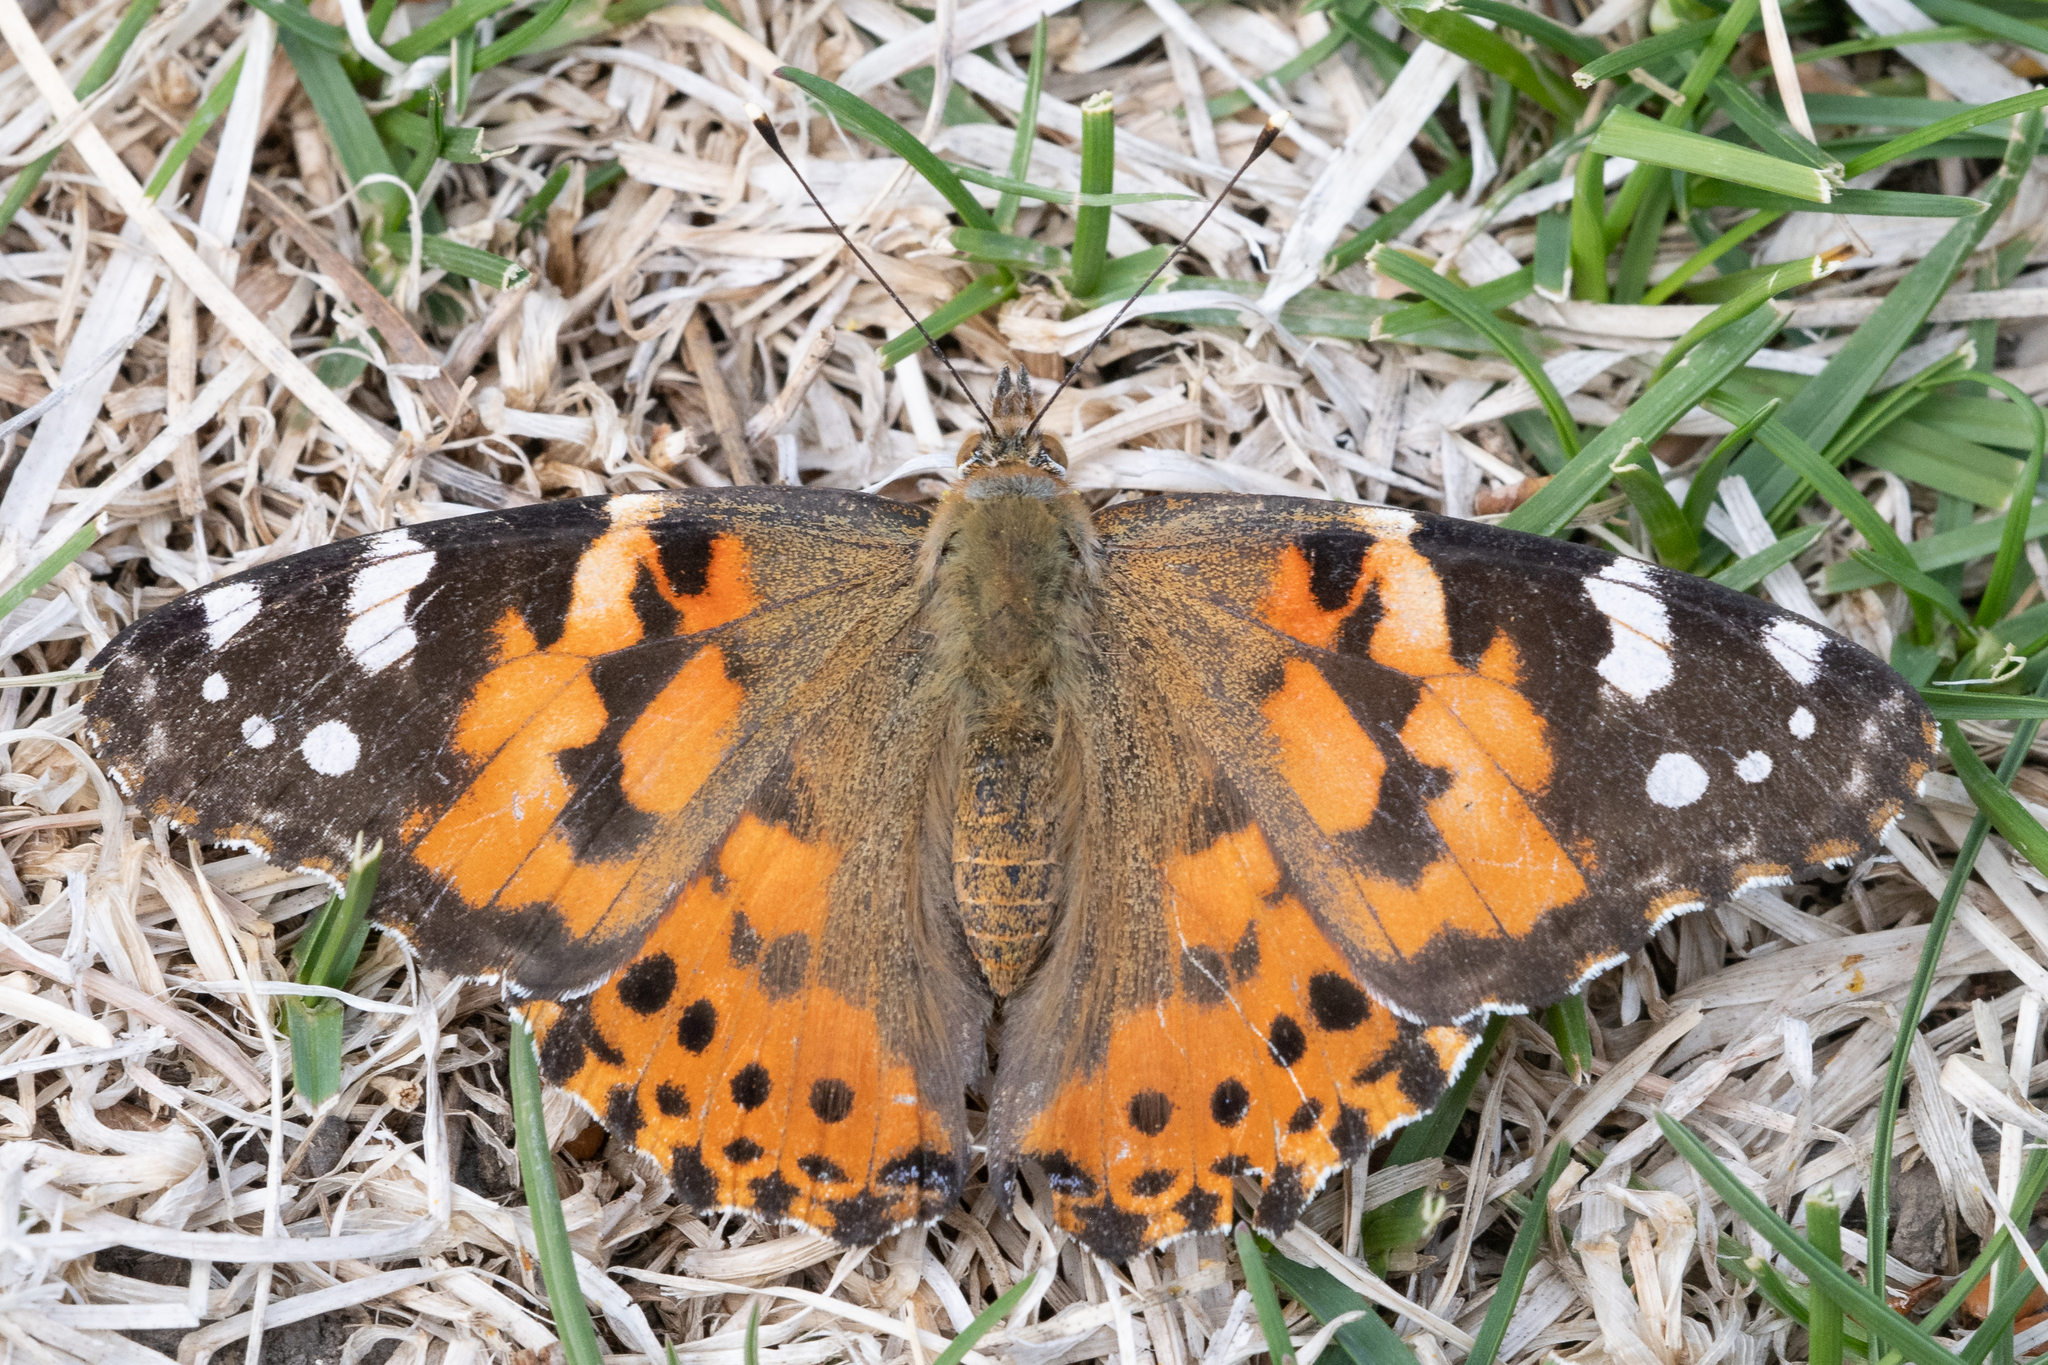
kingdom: Animalia
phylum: Arthropoda
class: Insecta
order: Lepidoptera
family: Nymphalidae
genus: Vanessa
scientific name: Vanessa cardui
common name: Painted lady
